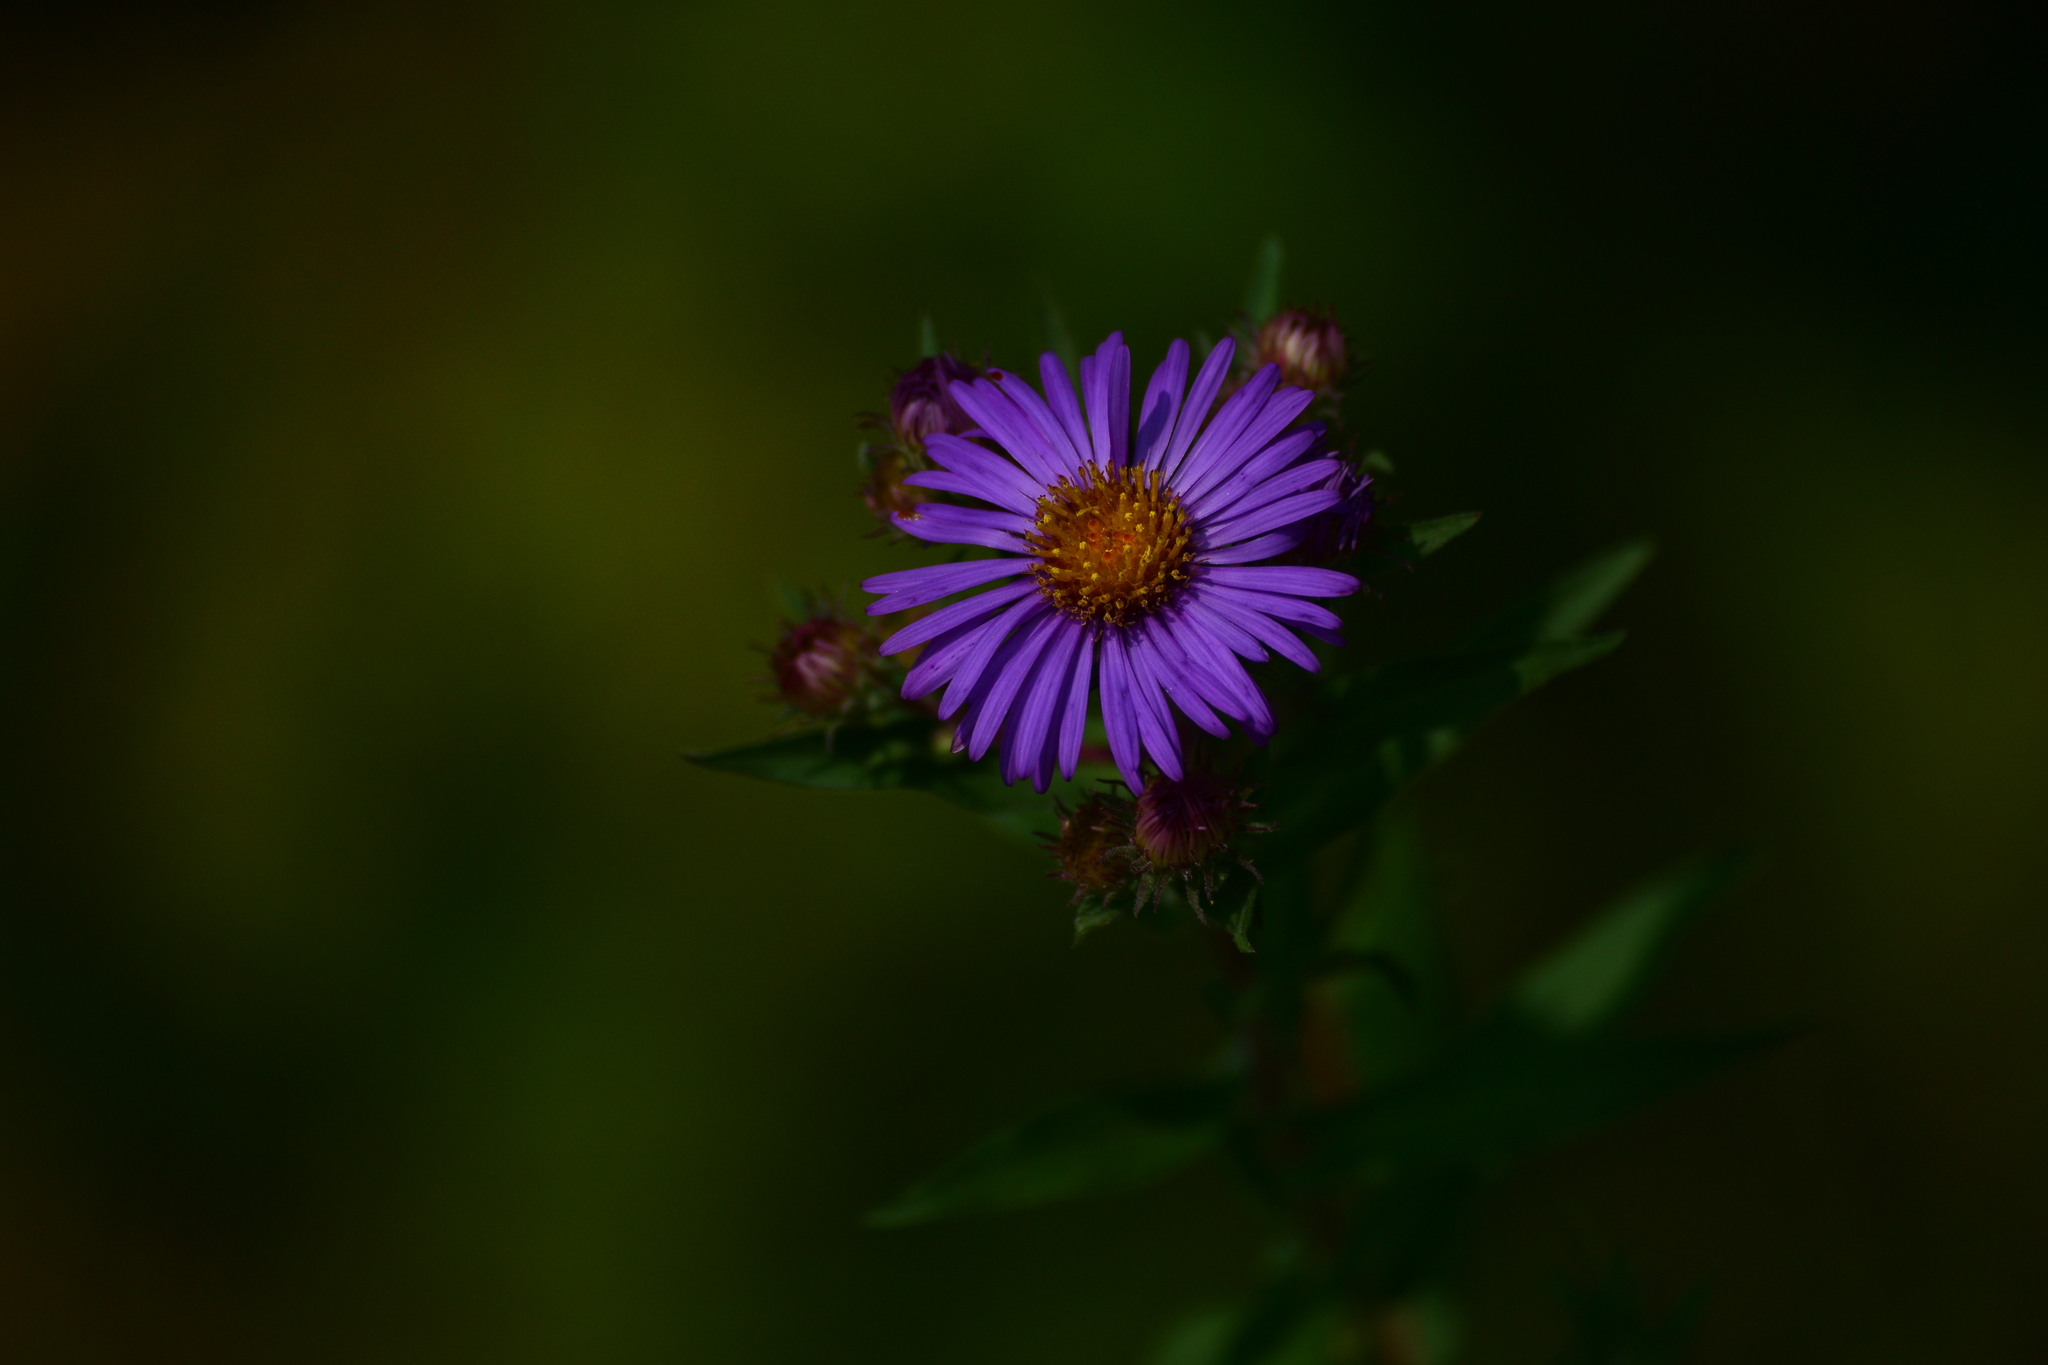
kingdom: Plantae
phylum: Tracheophyta
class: Magnoliopsida
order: Asterales
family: Asteraceae
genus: Symphyotrichum
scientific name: Symphyotrichum novae-angliae
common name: Michaelmas daisy
